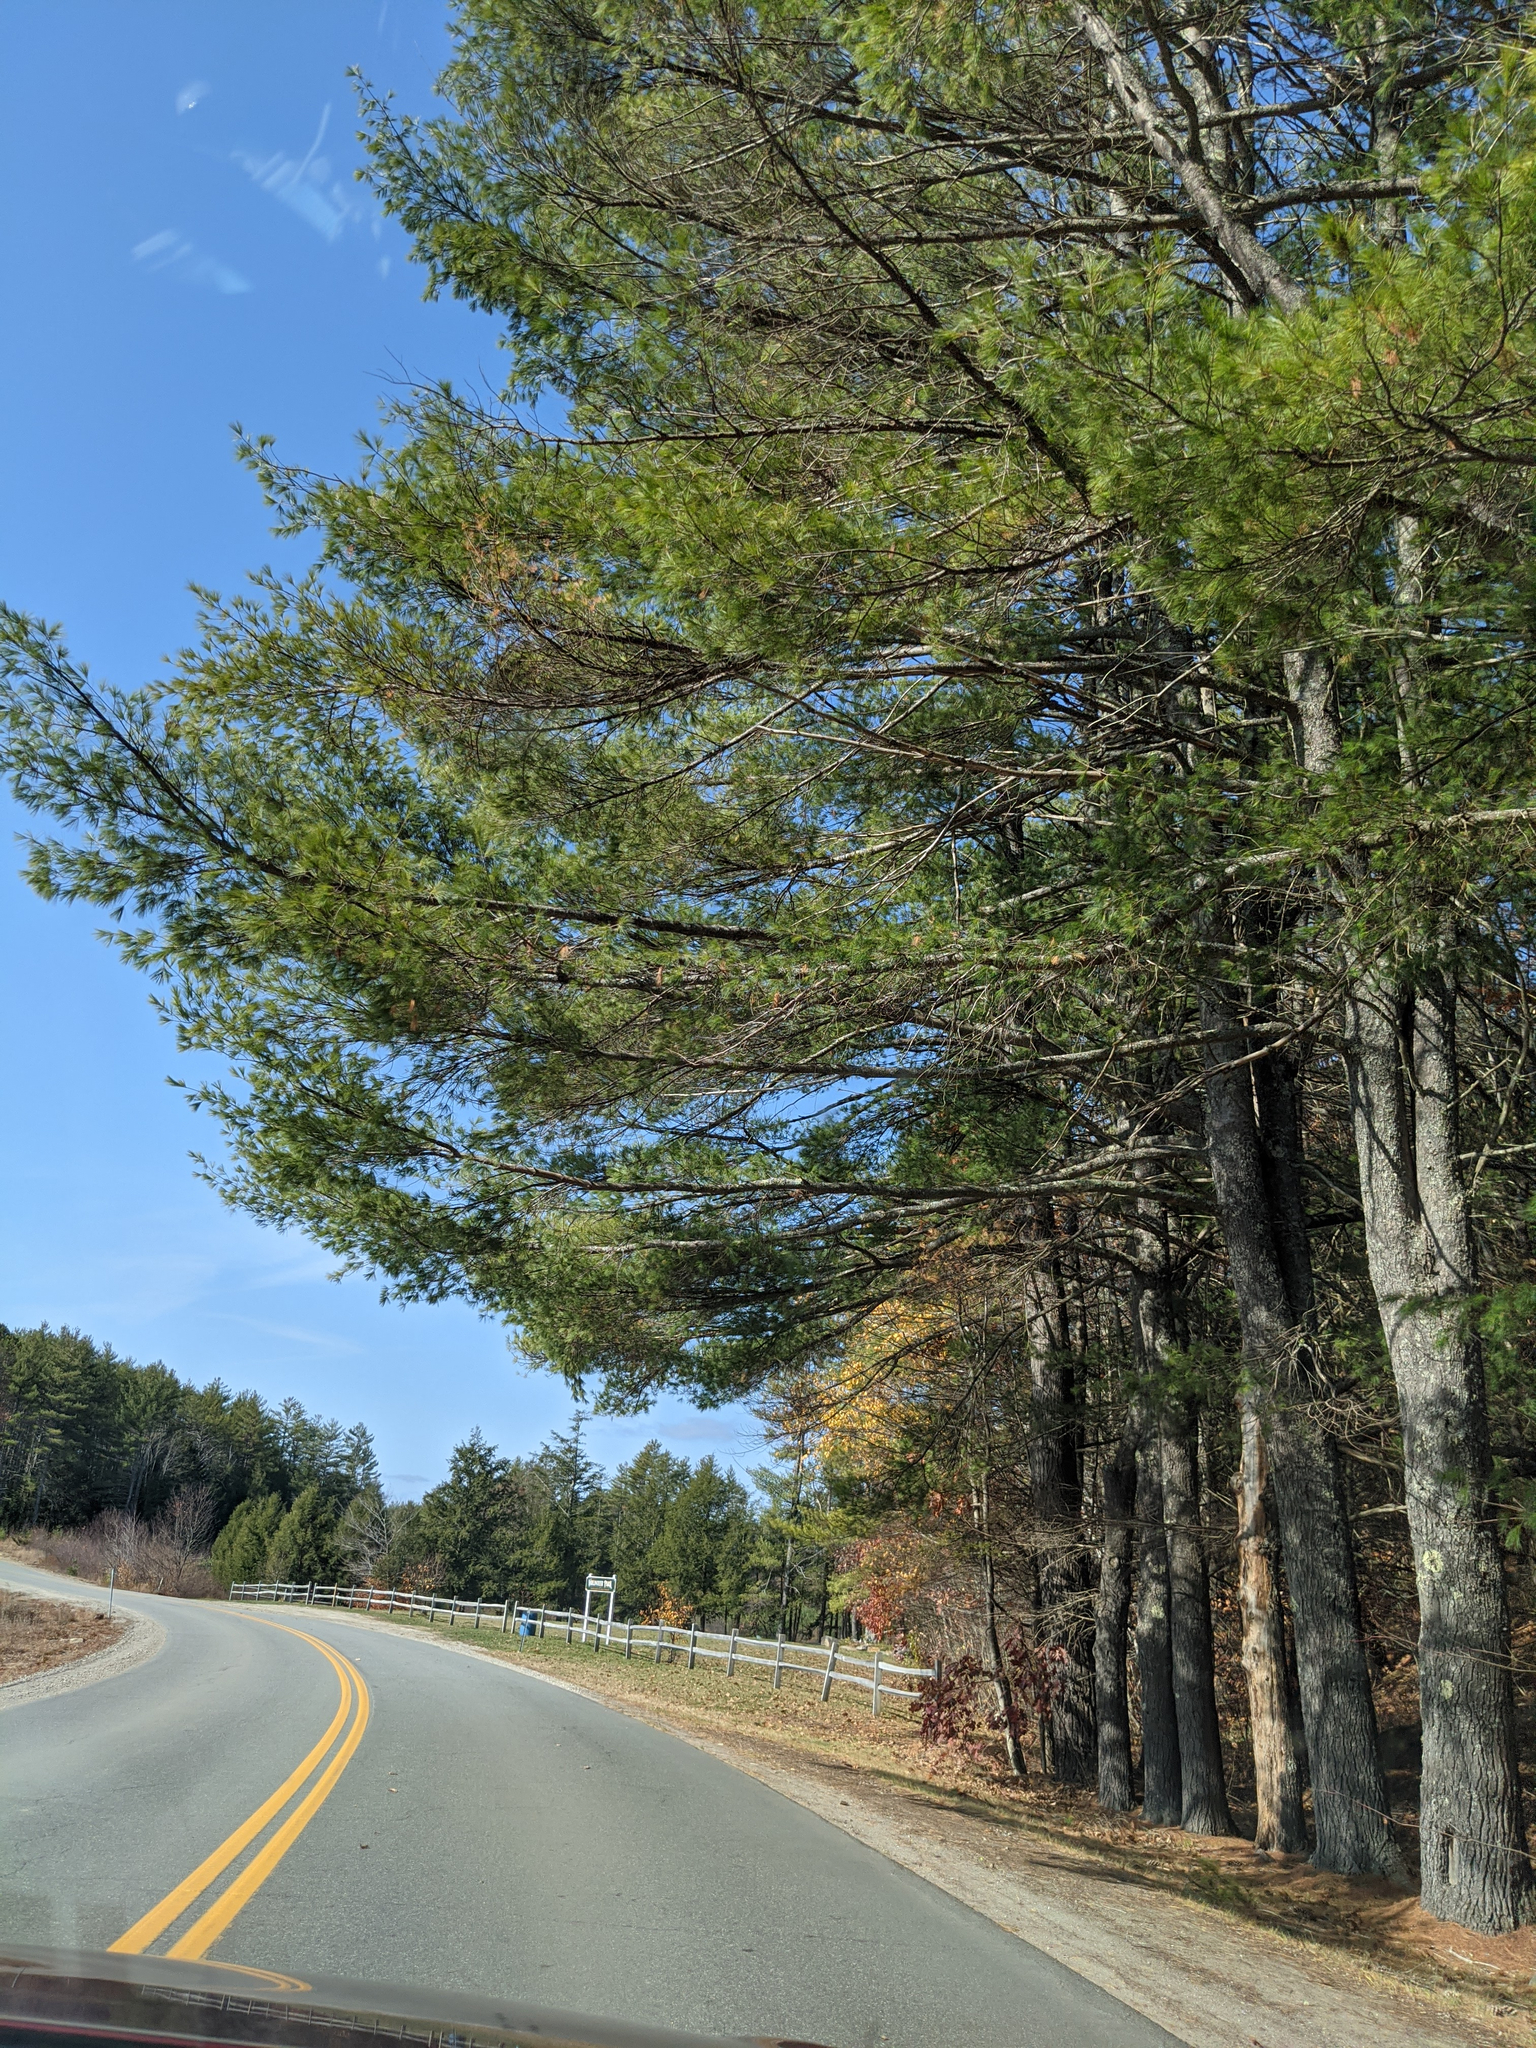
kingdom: Plantae
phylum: Tracheophyta
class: Pinopsida
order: Pinales
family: Pinaceae
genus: Pinus
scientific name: Pinus strobus
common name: Weymouth pine
